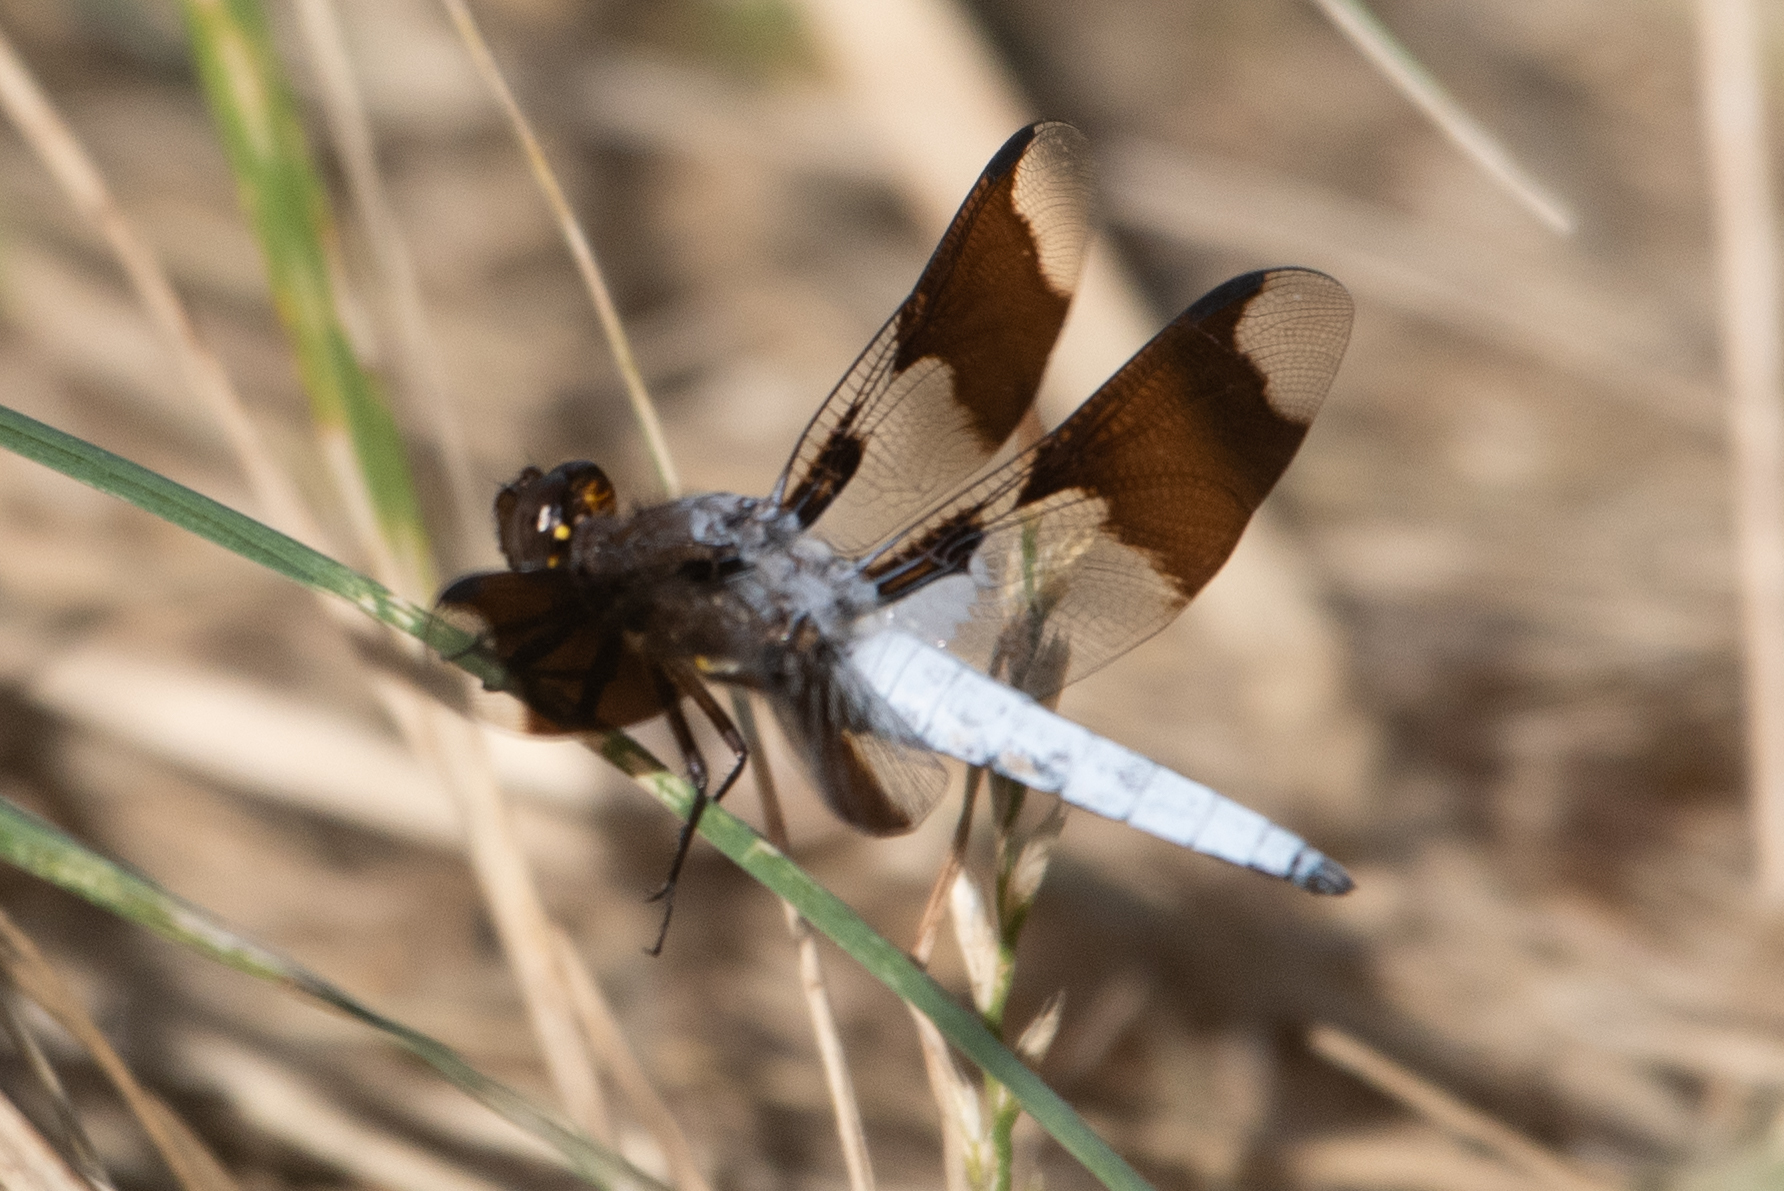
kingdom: Animalia
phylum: Arthropoda
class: Insecta
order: Odonata
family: Libellulidae
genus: Plathemis
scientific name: Plathemis lydia
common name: Common whitetail
